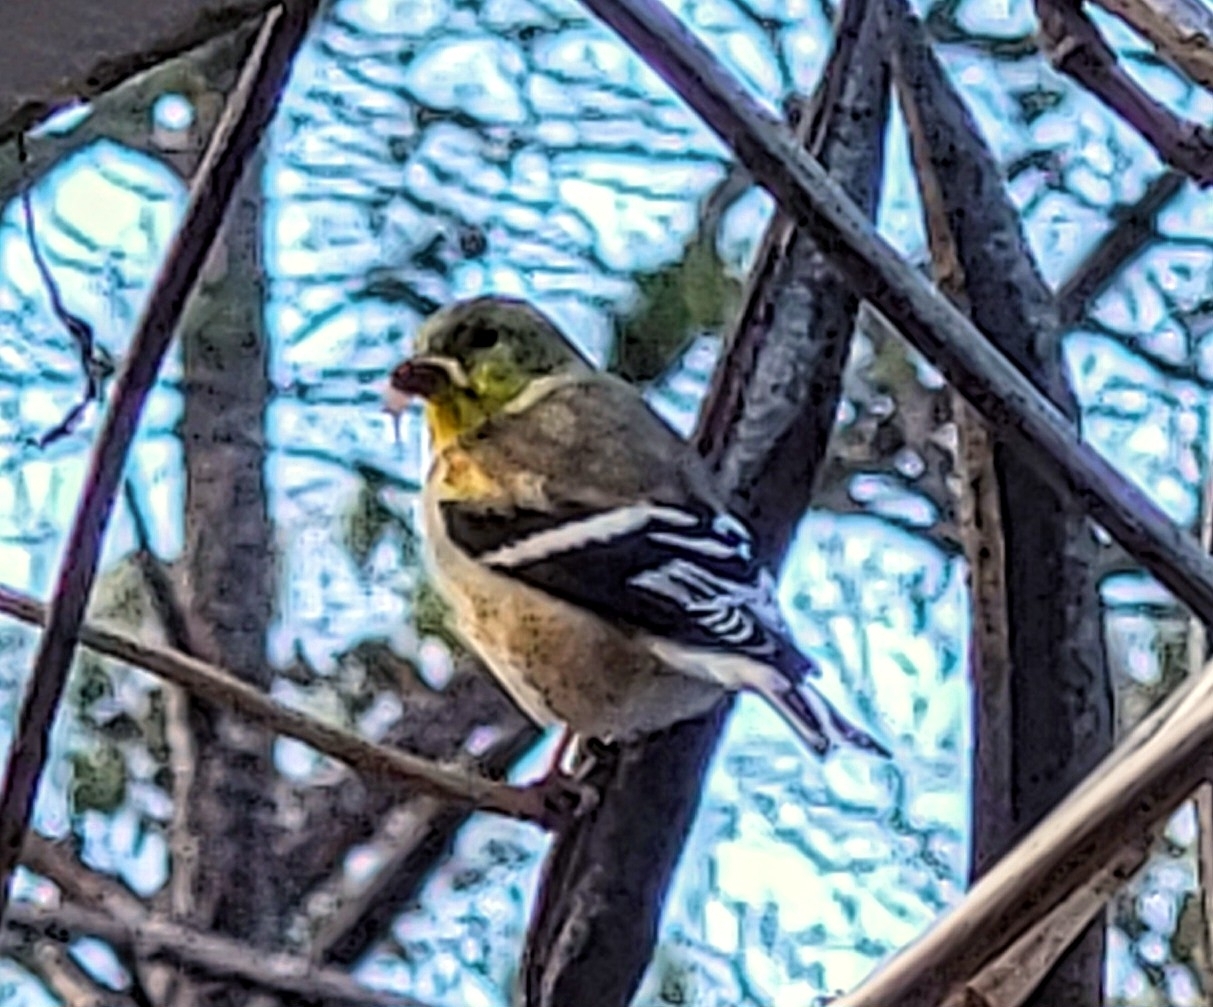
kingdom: Animalia
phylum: Chordata
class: Aves
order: Passeriformes
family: Fringillidae
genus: Spinus
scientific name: Spinus tristis
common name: American goldfinch
